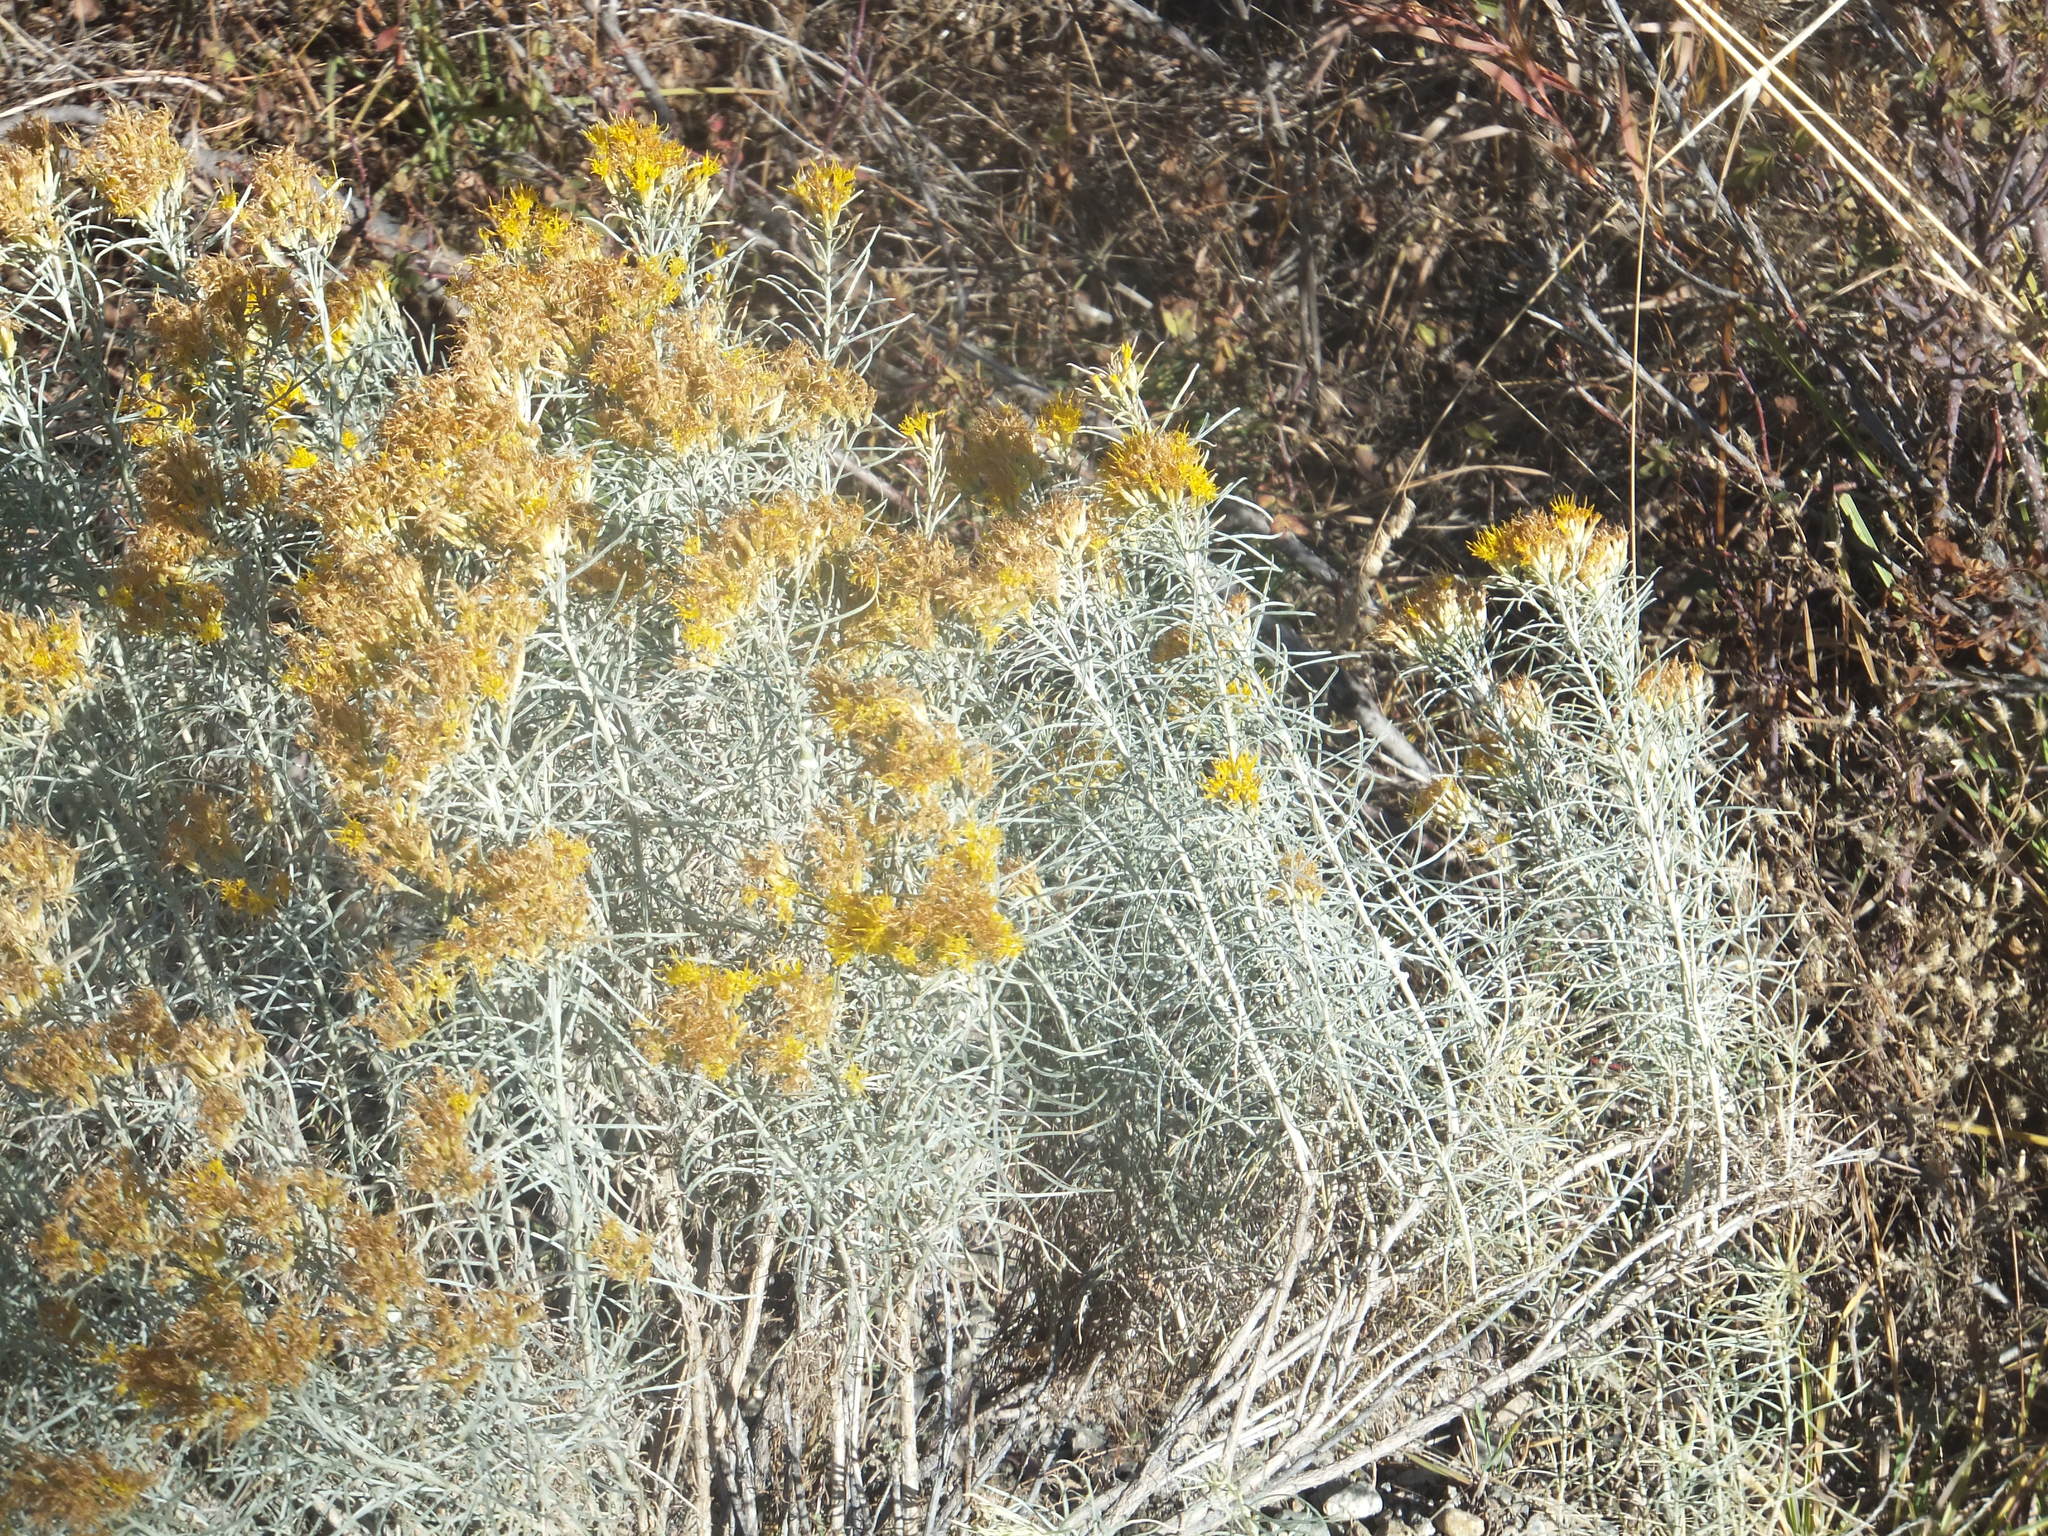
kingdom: Plantae
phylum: Tracheophyta
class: Magnoliopsida
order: Asterales
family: Asteraceae
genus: Ericameria
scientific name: Ericameria nauseosa
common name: Rubber rabbitbrush
